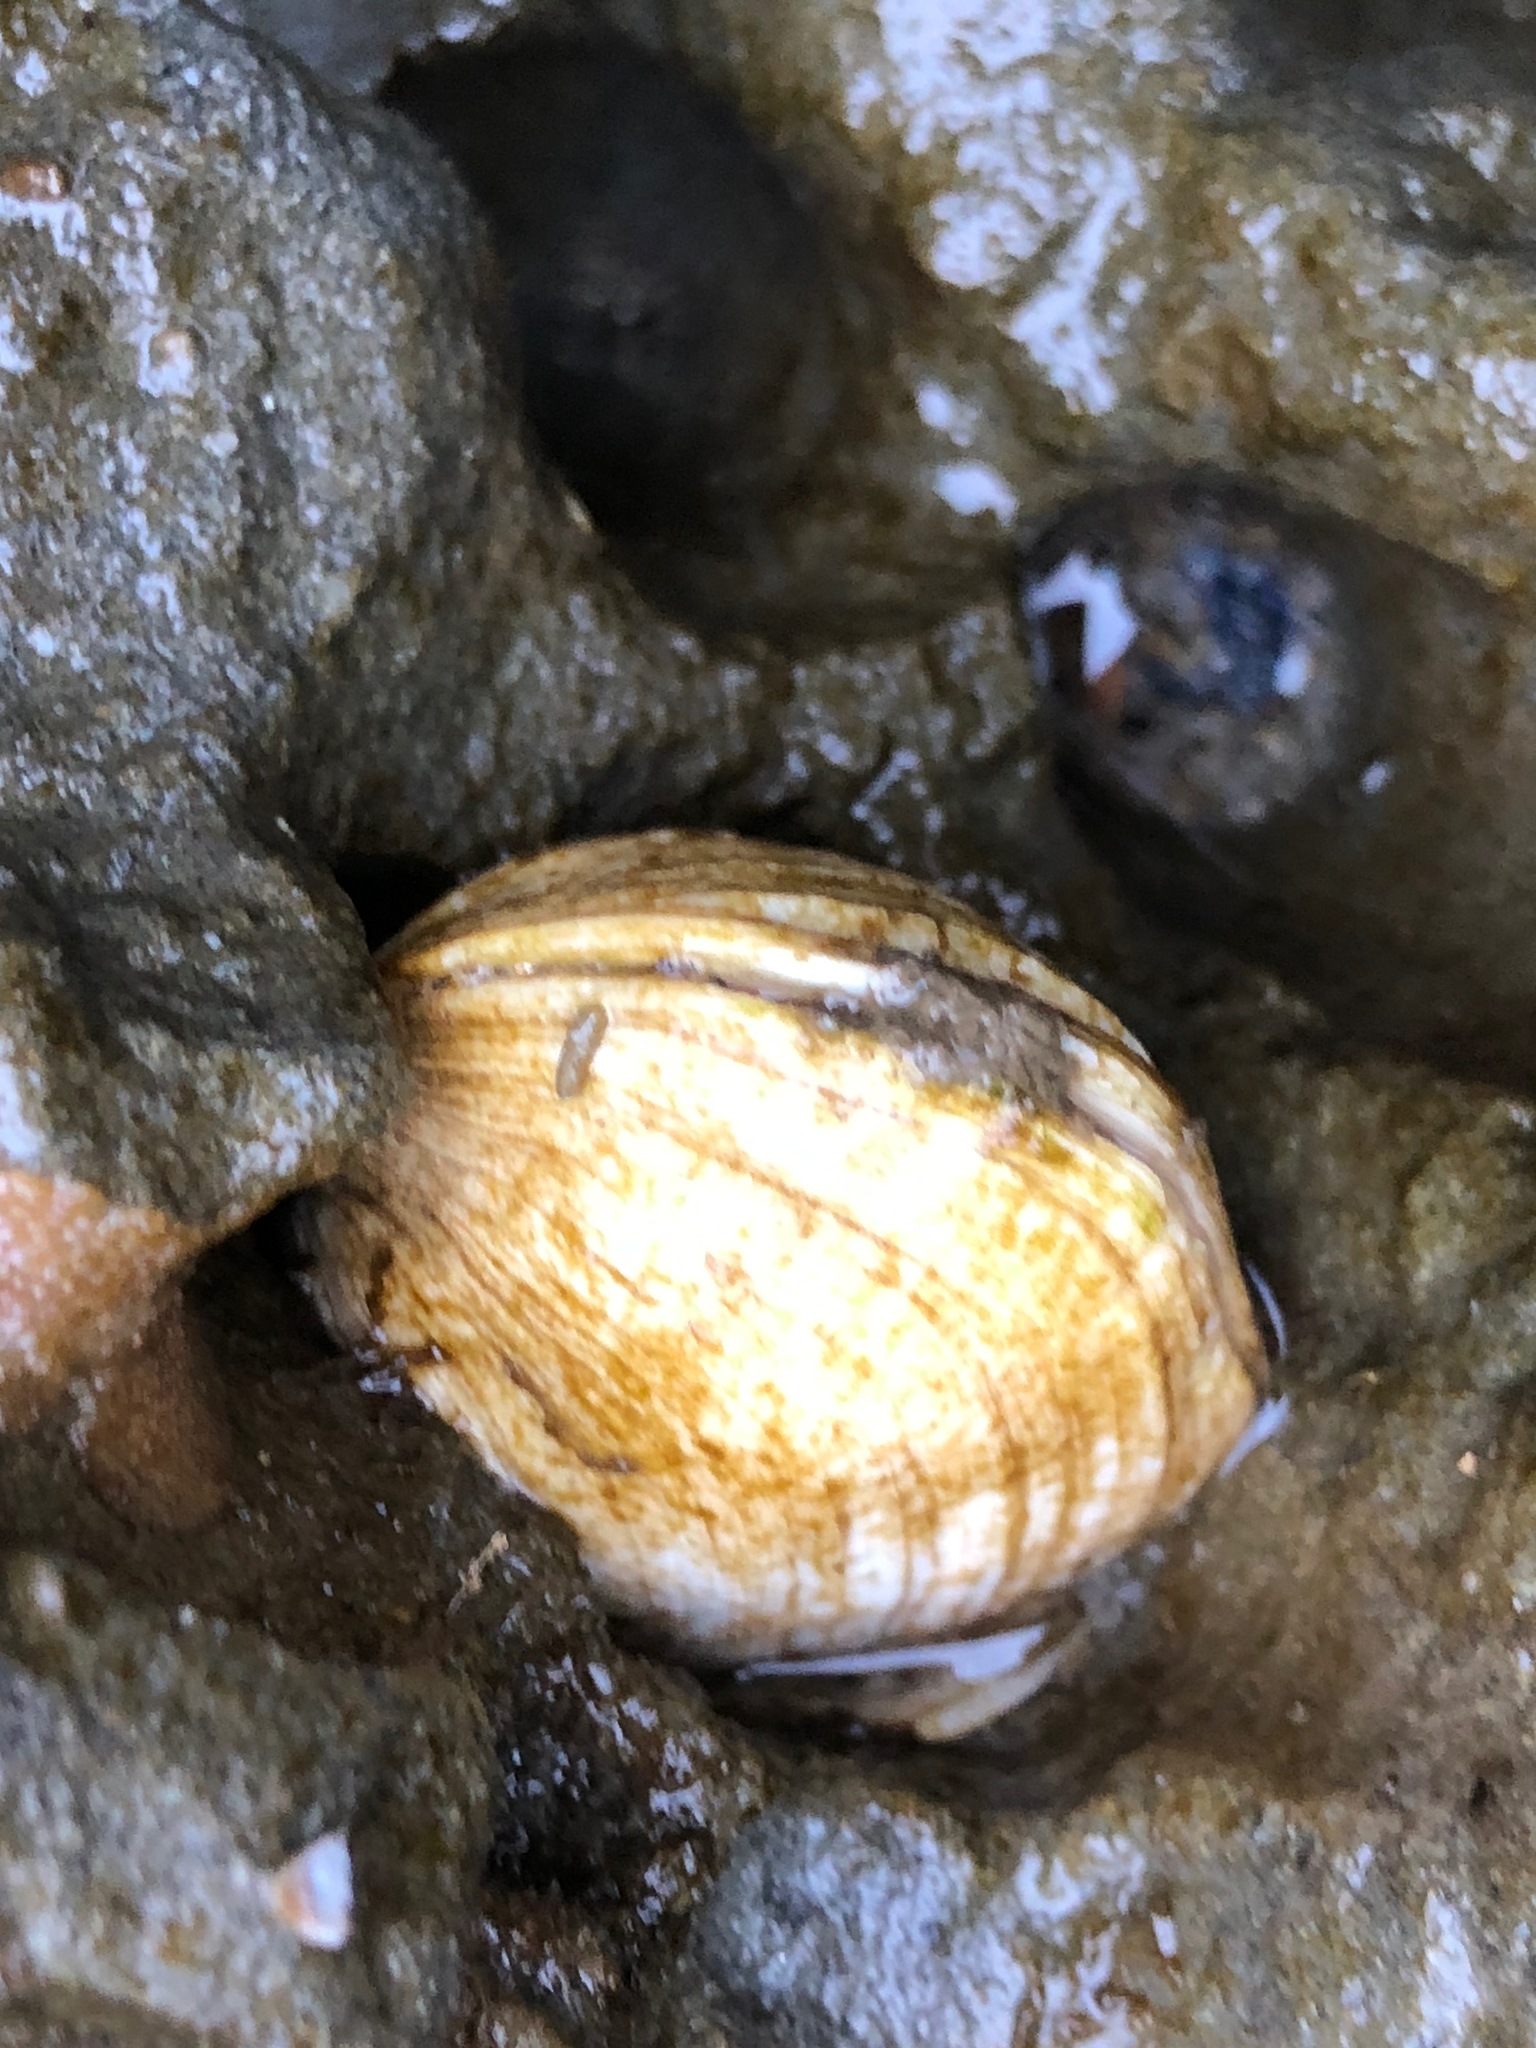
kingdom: Animalia
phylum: Mollusca
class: Bivalvia
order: Venerida
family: Veneridae
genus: Petricola
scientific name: Petricola carditoides
